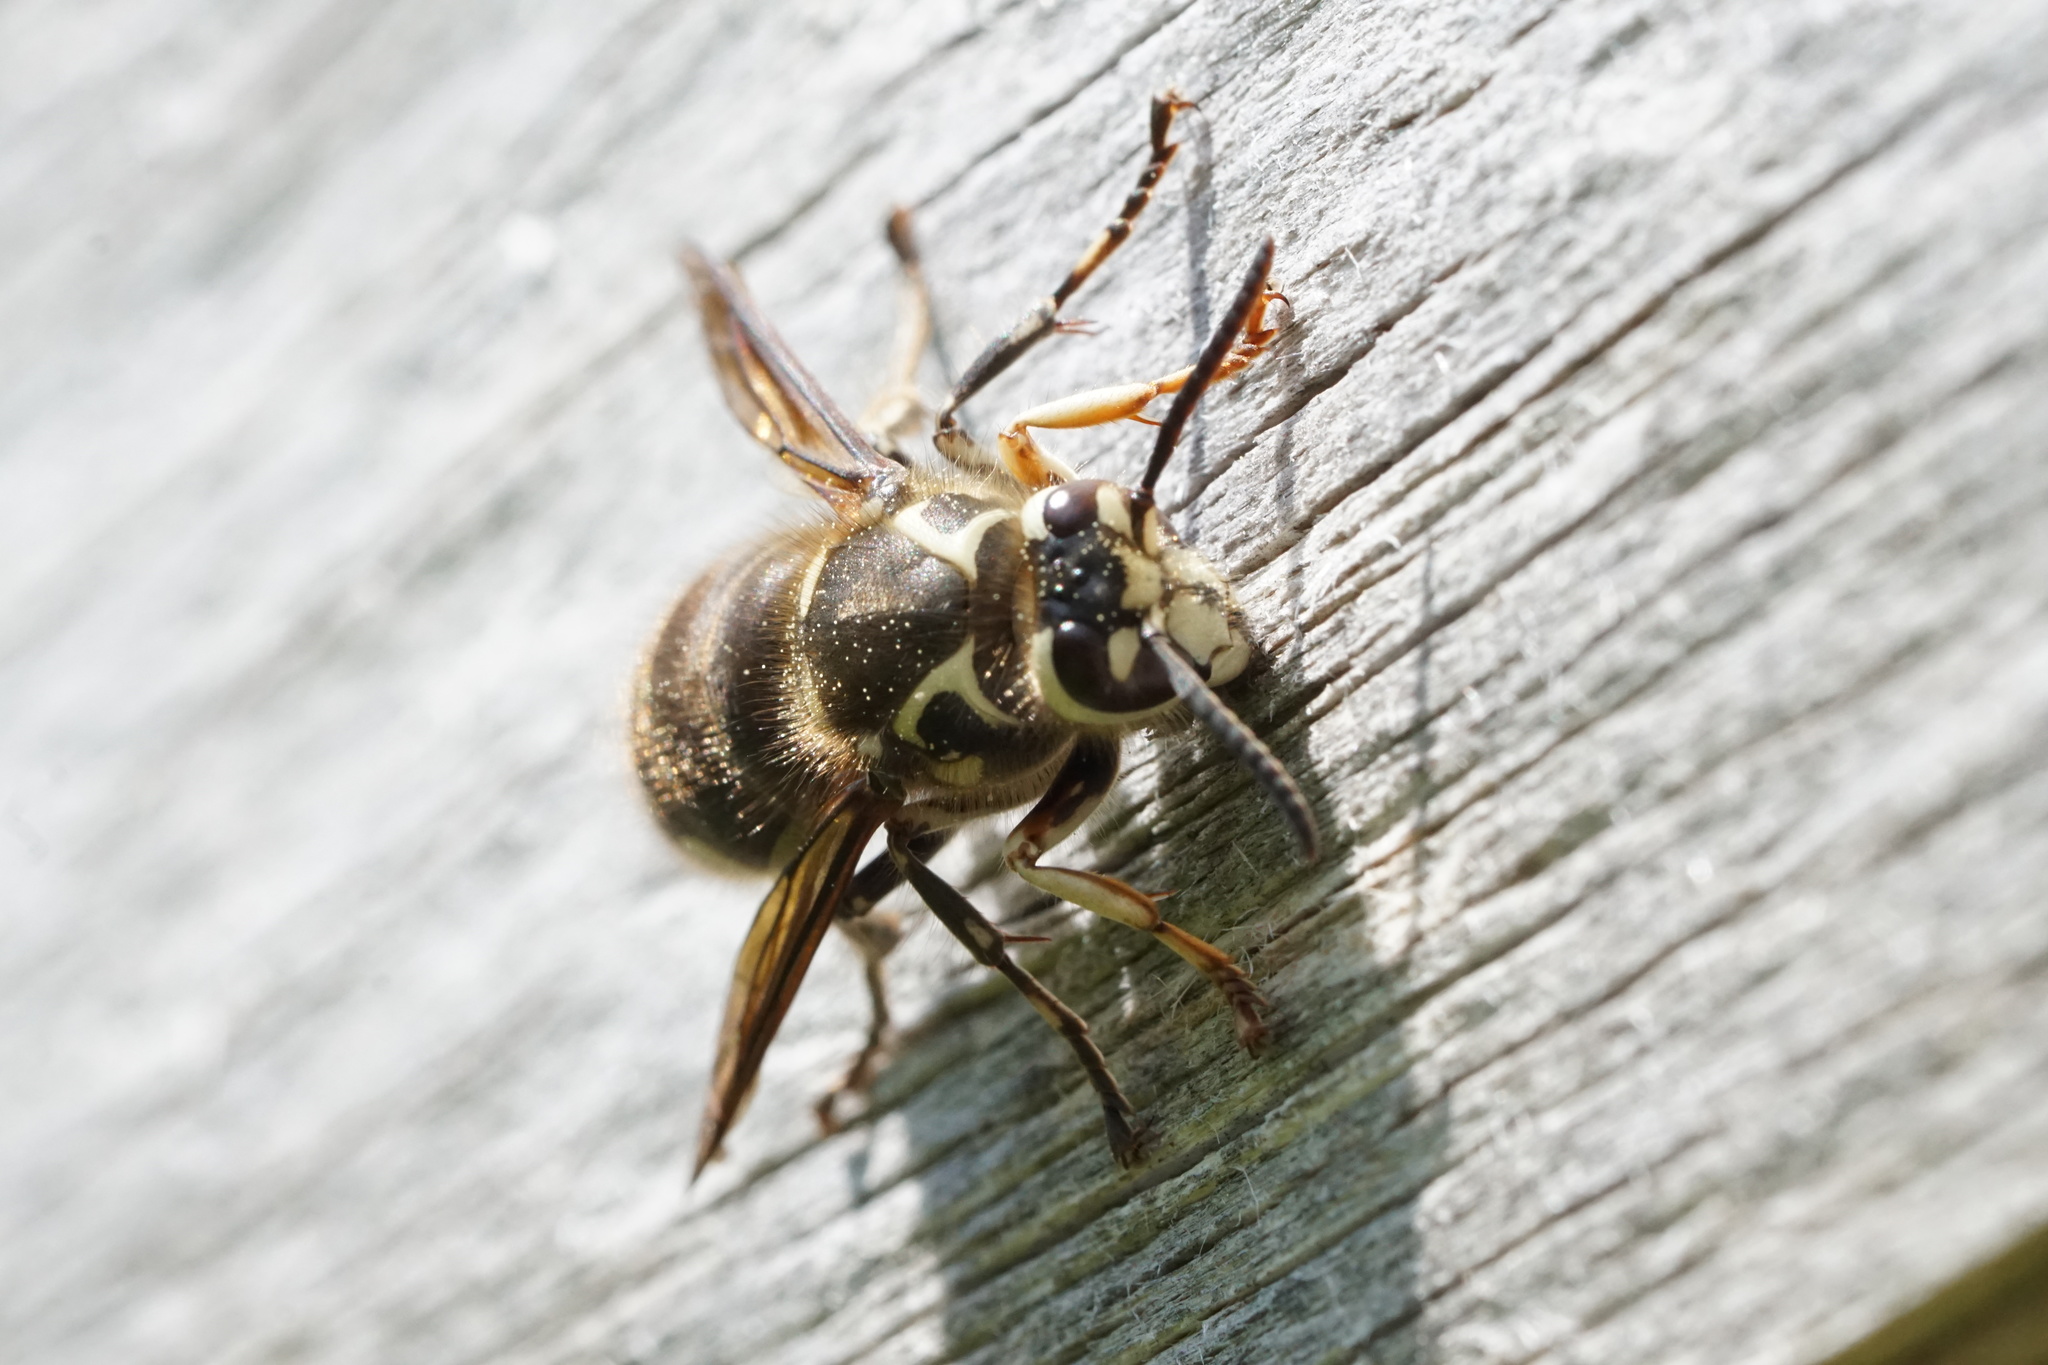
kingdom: Animalia
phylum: Arthropoda
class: Insecta
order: Hymenoptera
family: Vespidae
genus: Dolichovespula
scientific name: Dolichovespula maculata
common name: Bald-faced hornet
